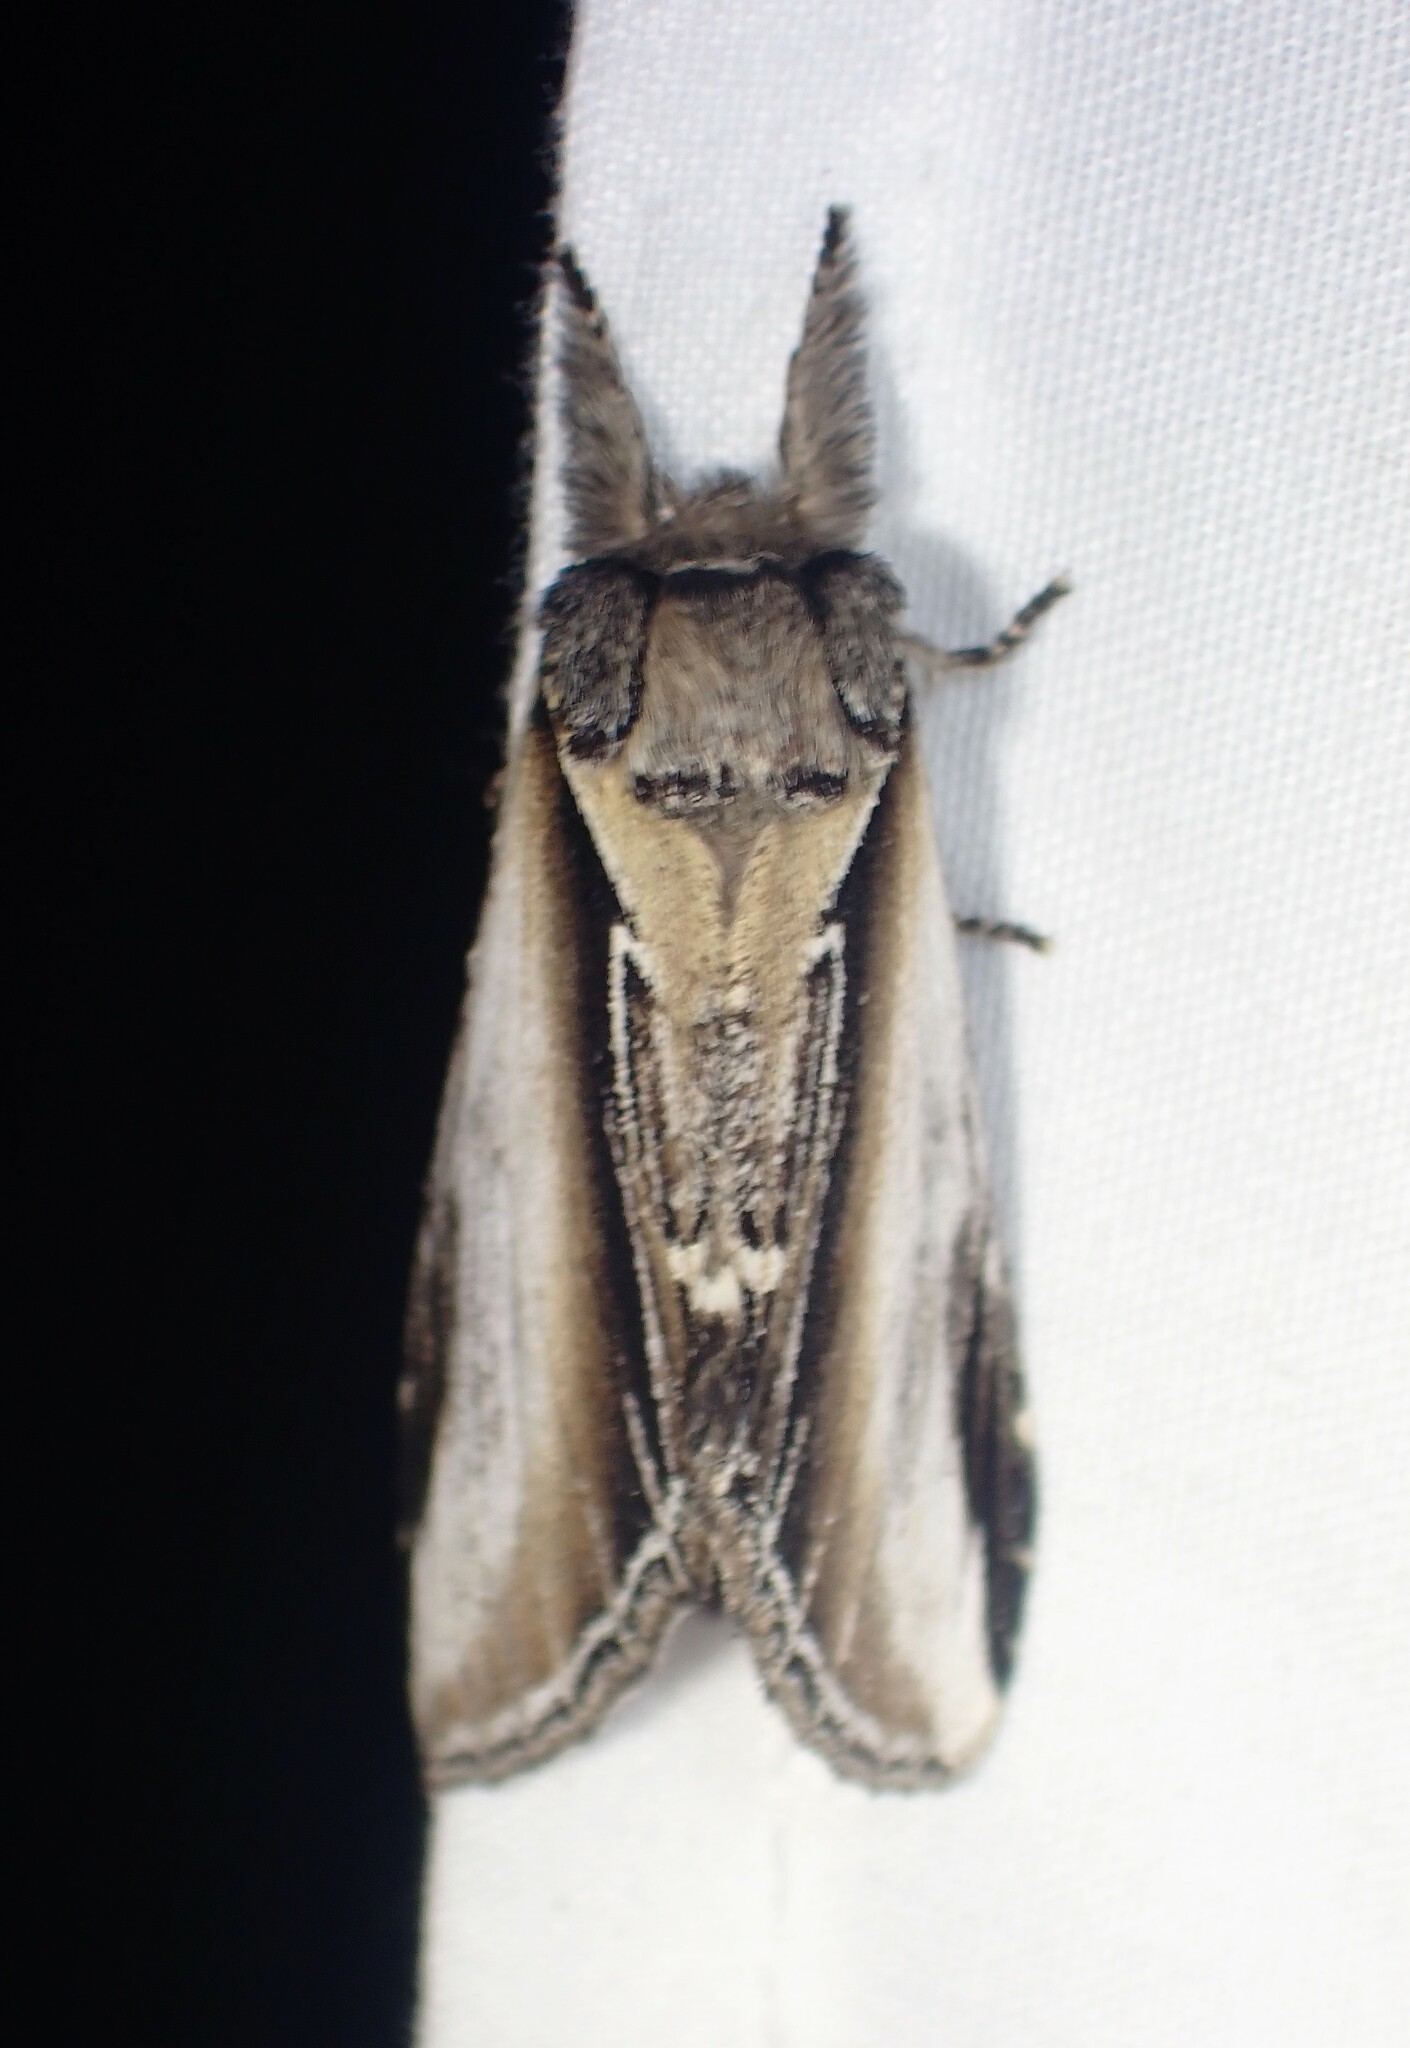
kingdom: Animalia
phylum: Arthropoda
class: Insecta
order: Lepidoptera
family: Notodontidae
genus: Pheosia
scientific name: Pheosia rimosa
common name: Black-rimmed prominent
